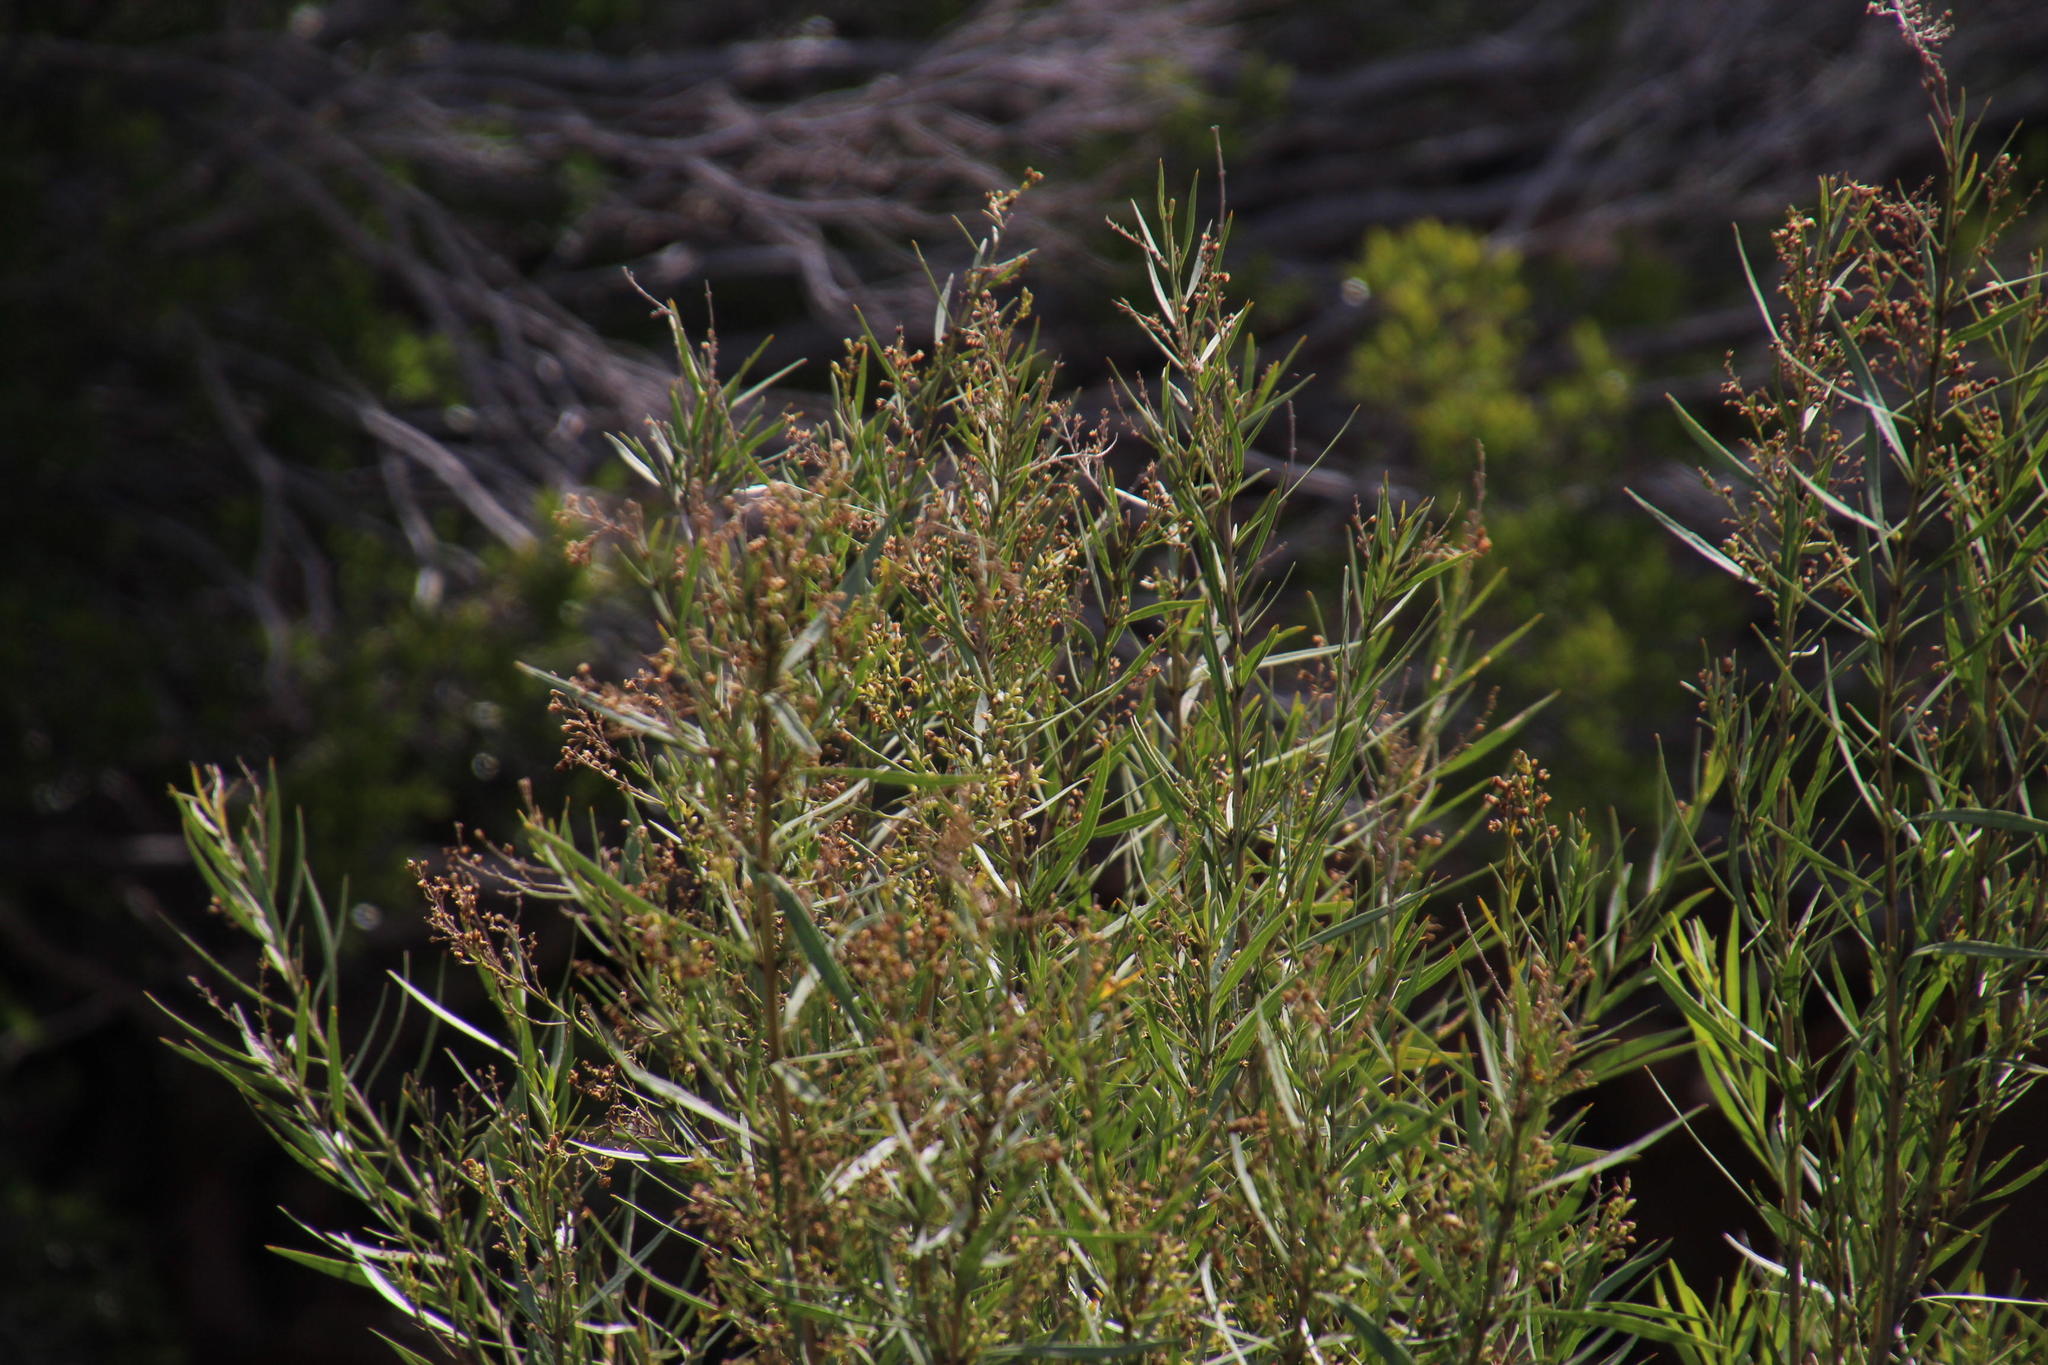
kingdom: Plantae
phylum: Tracheophyta
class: Magnoliopsida
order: Lamiales
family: Scrophulariaceae
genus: Freylinia
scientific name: Freylinia lanceolata
